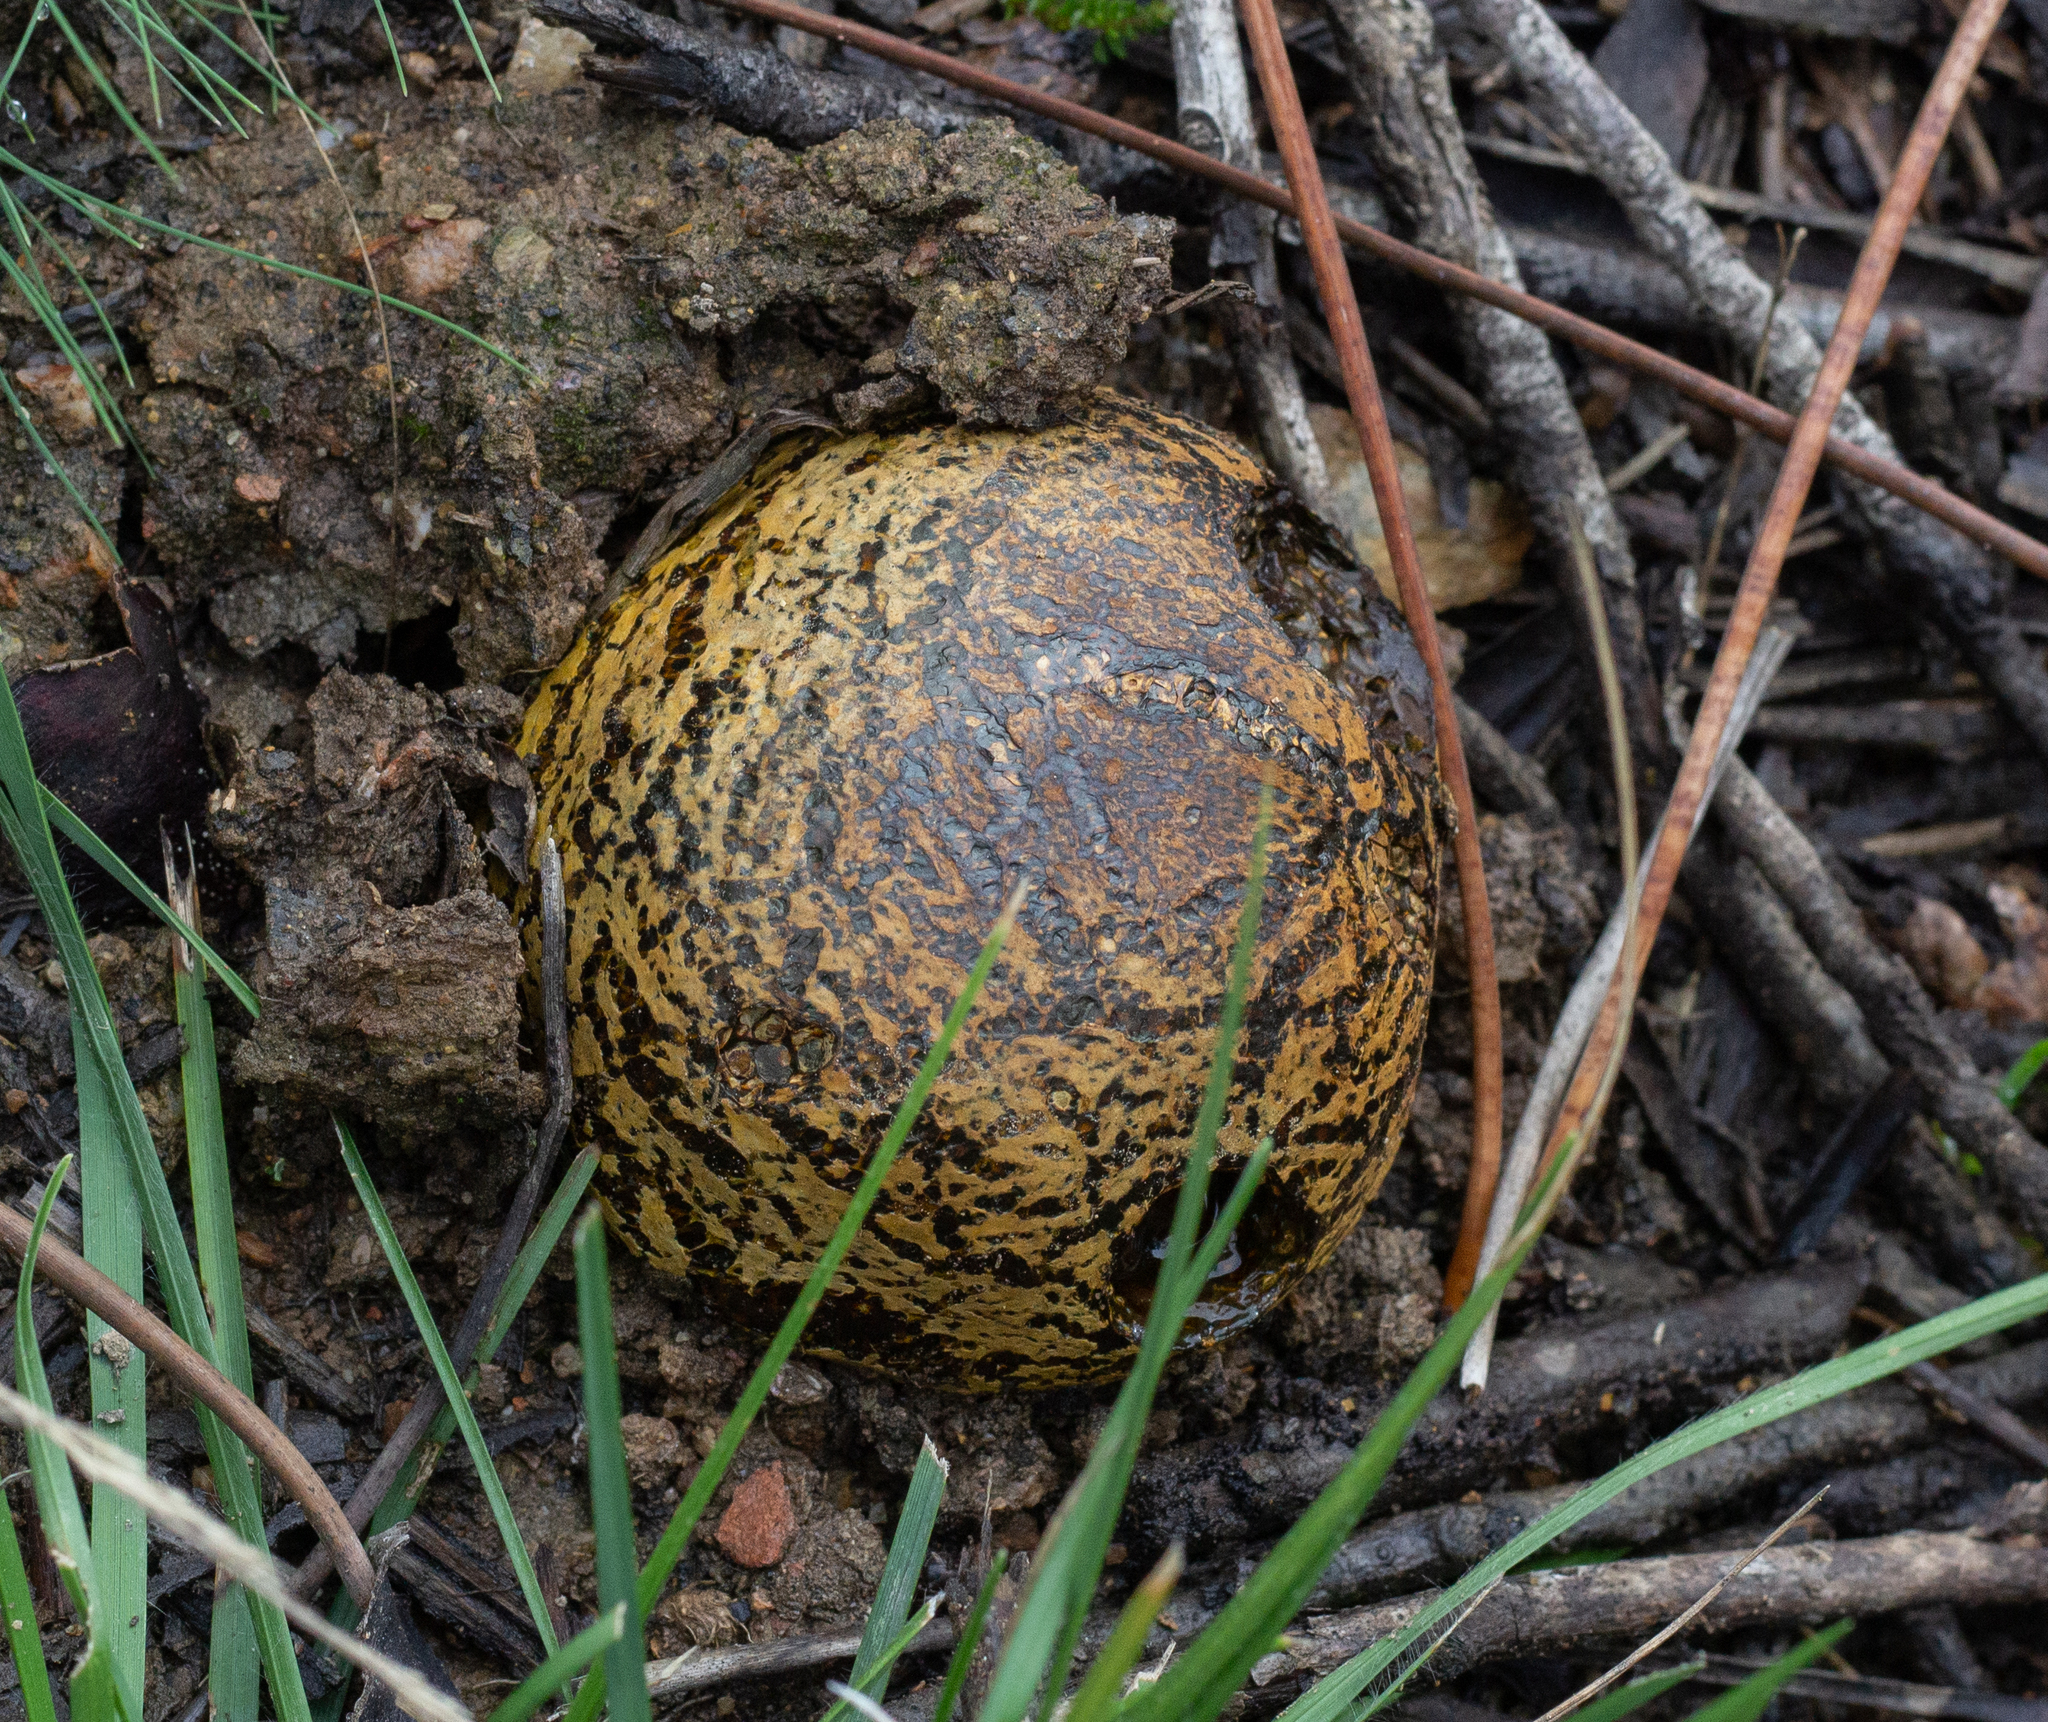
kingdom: Fungi
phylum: Basidiomycota
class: Agaricomycetes
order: Boletales
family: Sclerodermataceae
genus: Pisolithus
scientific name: Pisolithus arhizus
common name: Dyeball
